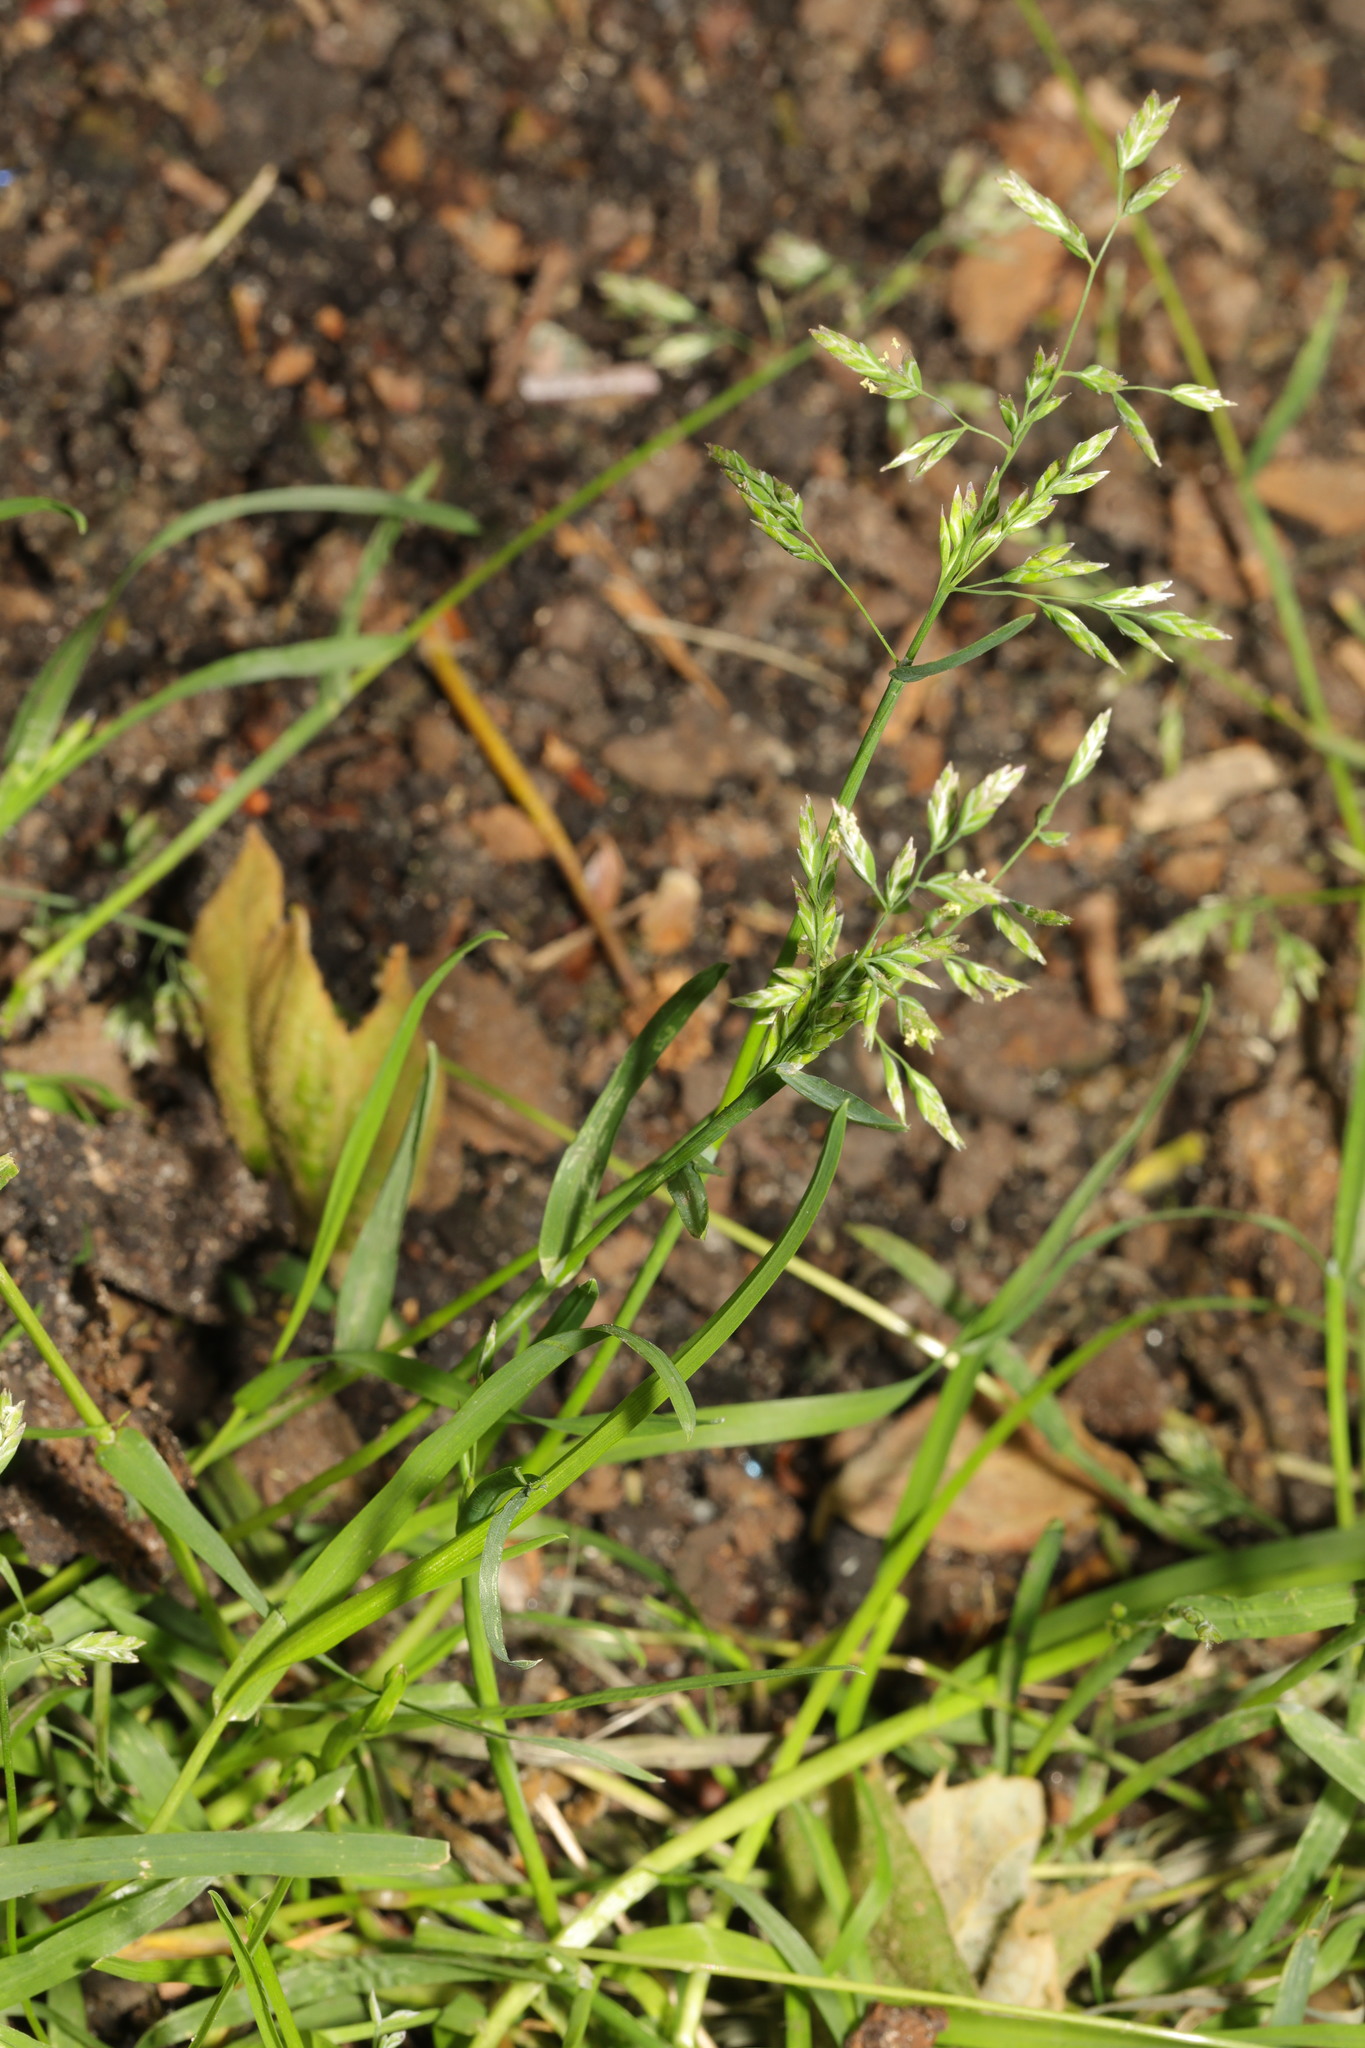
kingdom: Plantae
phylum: Tracheophyta
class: Liliopsida
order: Poales
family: Poaceae
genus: Poa
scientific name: Poa annua
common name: Annual bluegrass
